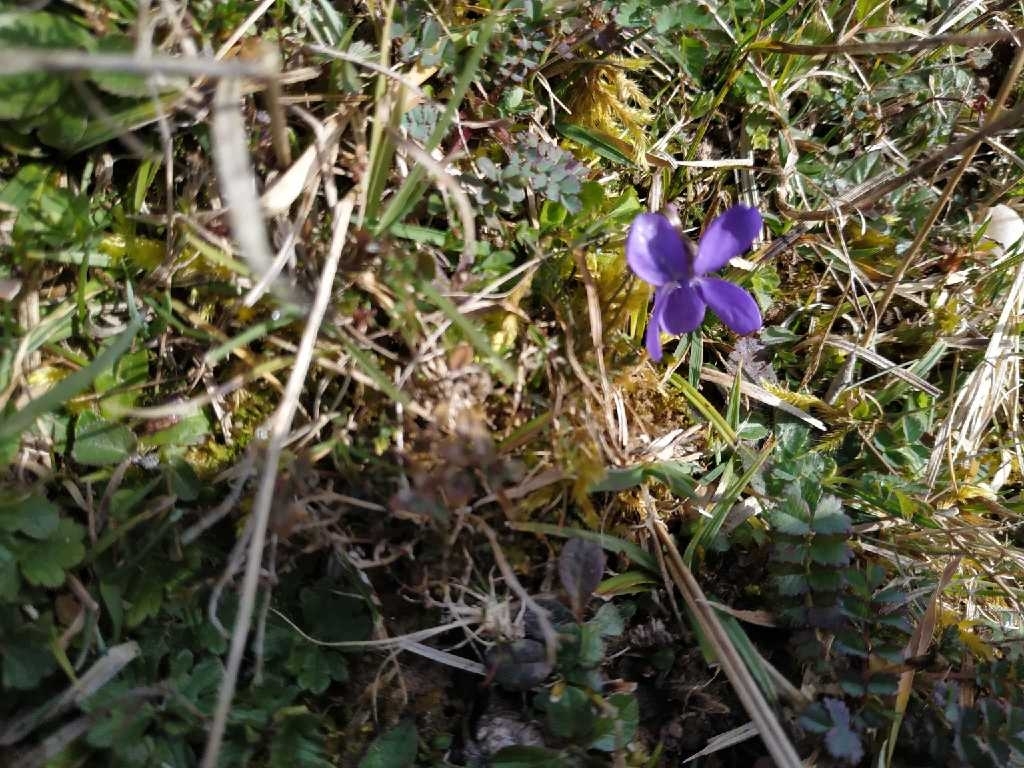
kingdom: Plantae
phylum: Tracheophyta
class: Magnoliopsida
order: Malpighiales
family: Violaceae
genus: Viola
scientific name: Viola odorata
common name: Sweet violet
